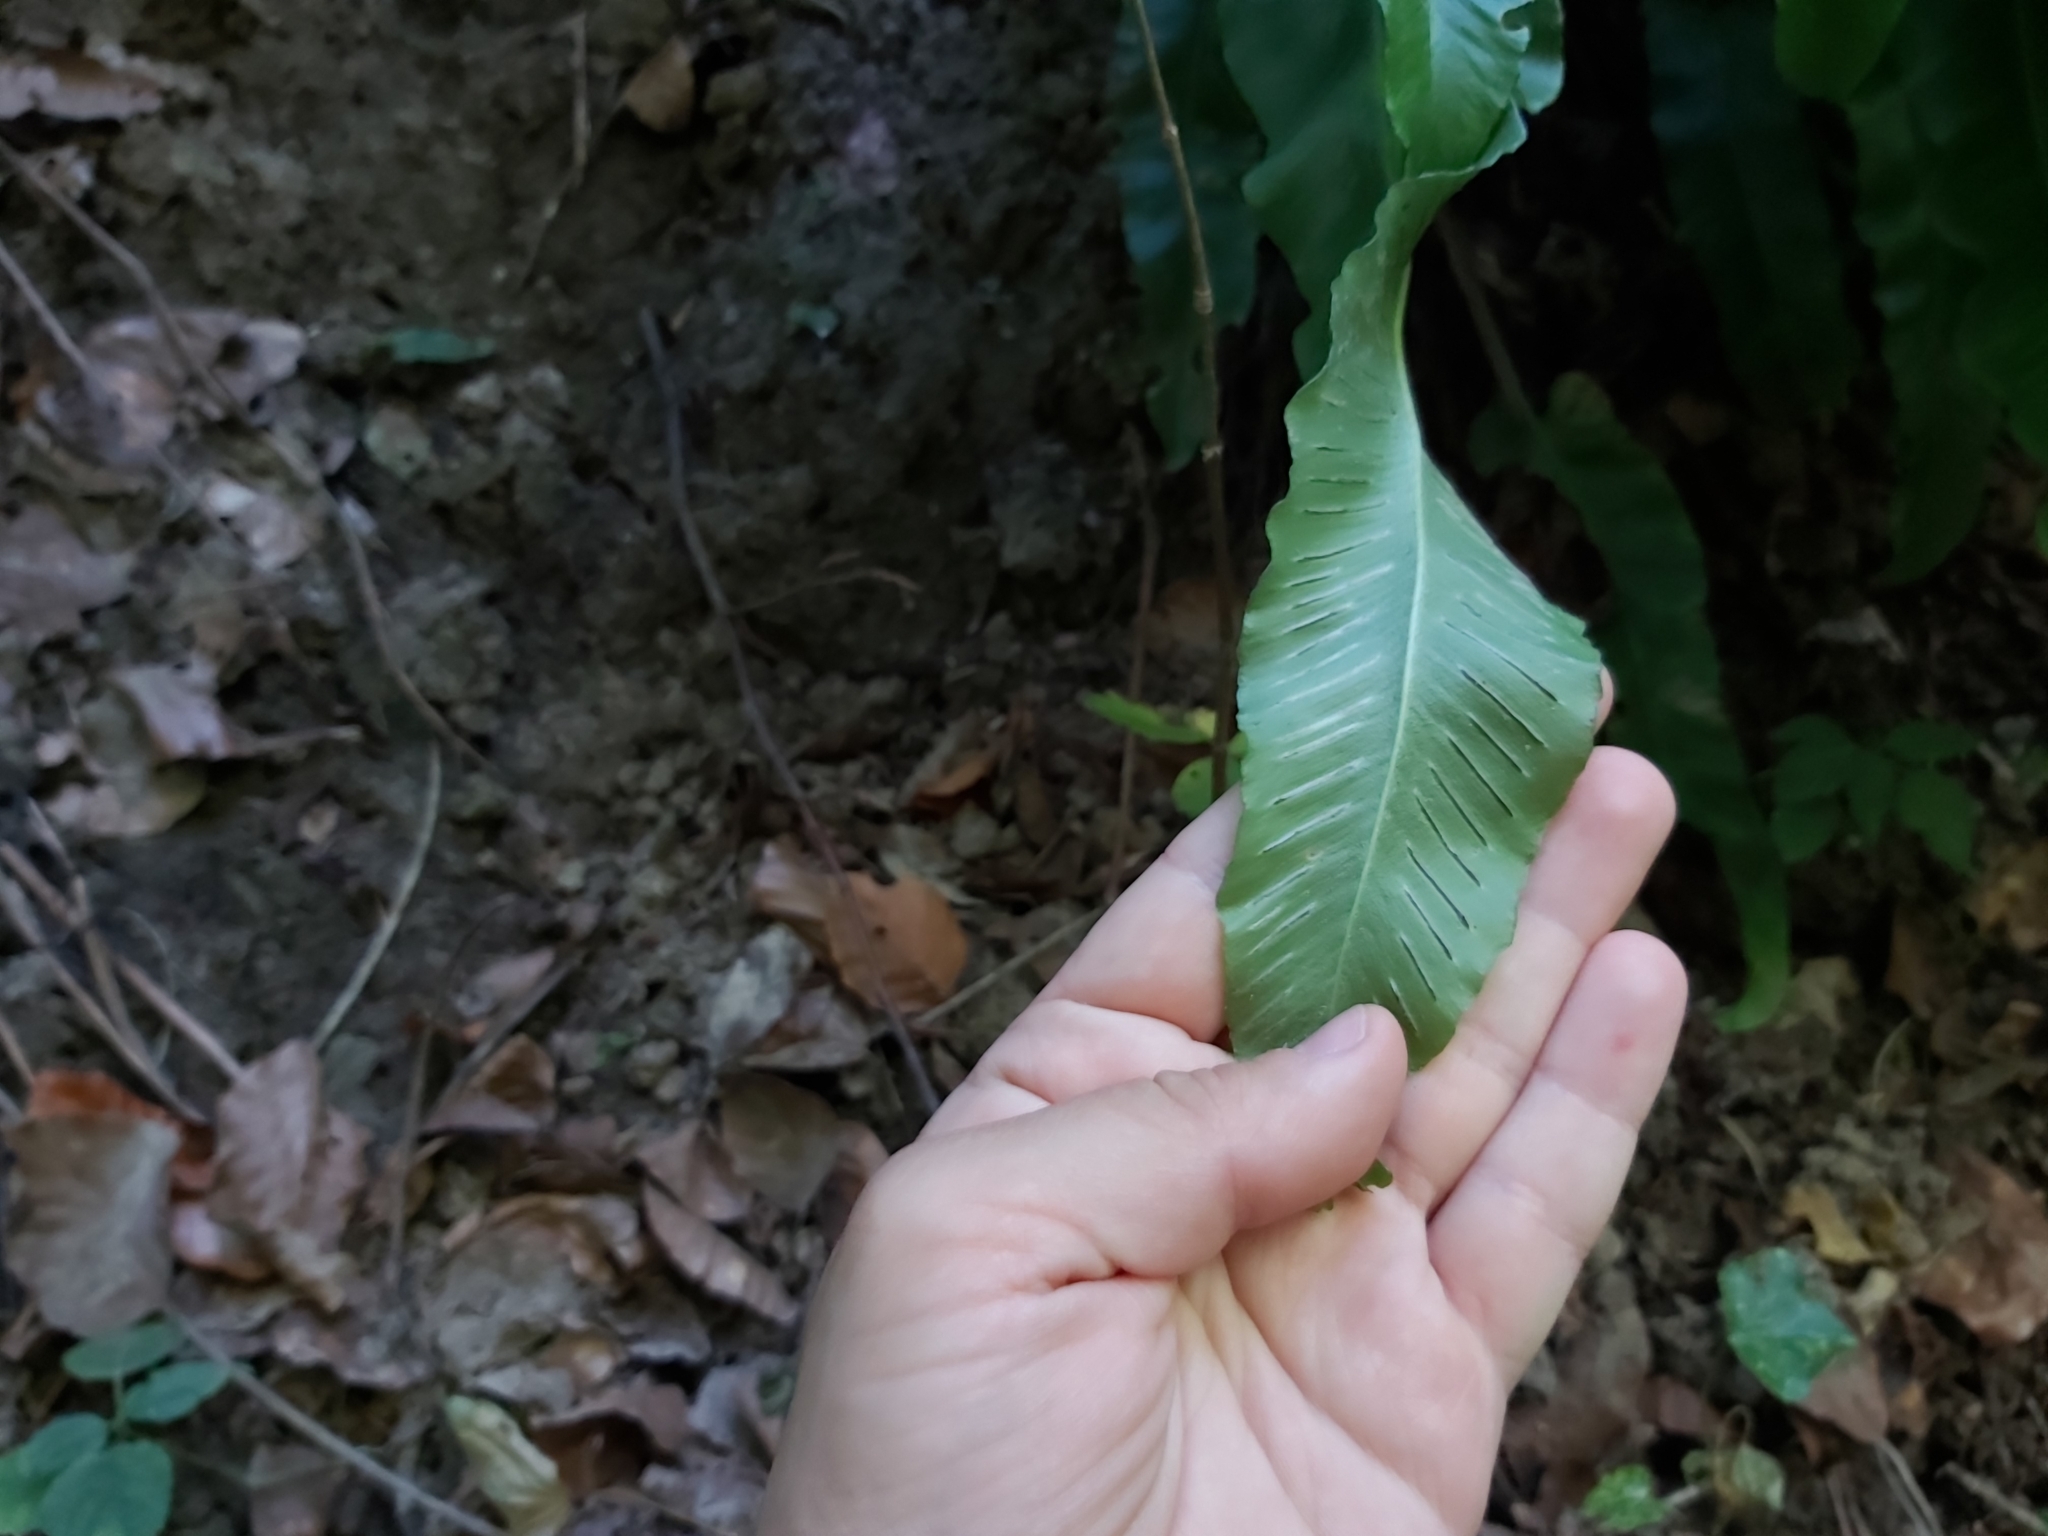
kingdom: Plantae
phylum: Tracheophyta
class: Polypodiopsida
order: Polypodiales
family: Aspleniaceae
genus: Asplenium
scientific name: Asplenium scolopendrium
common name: Hart's-tongue fern
